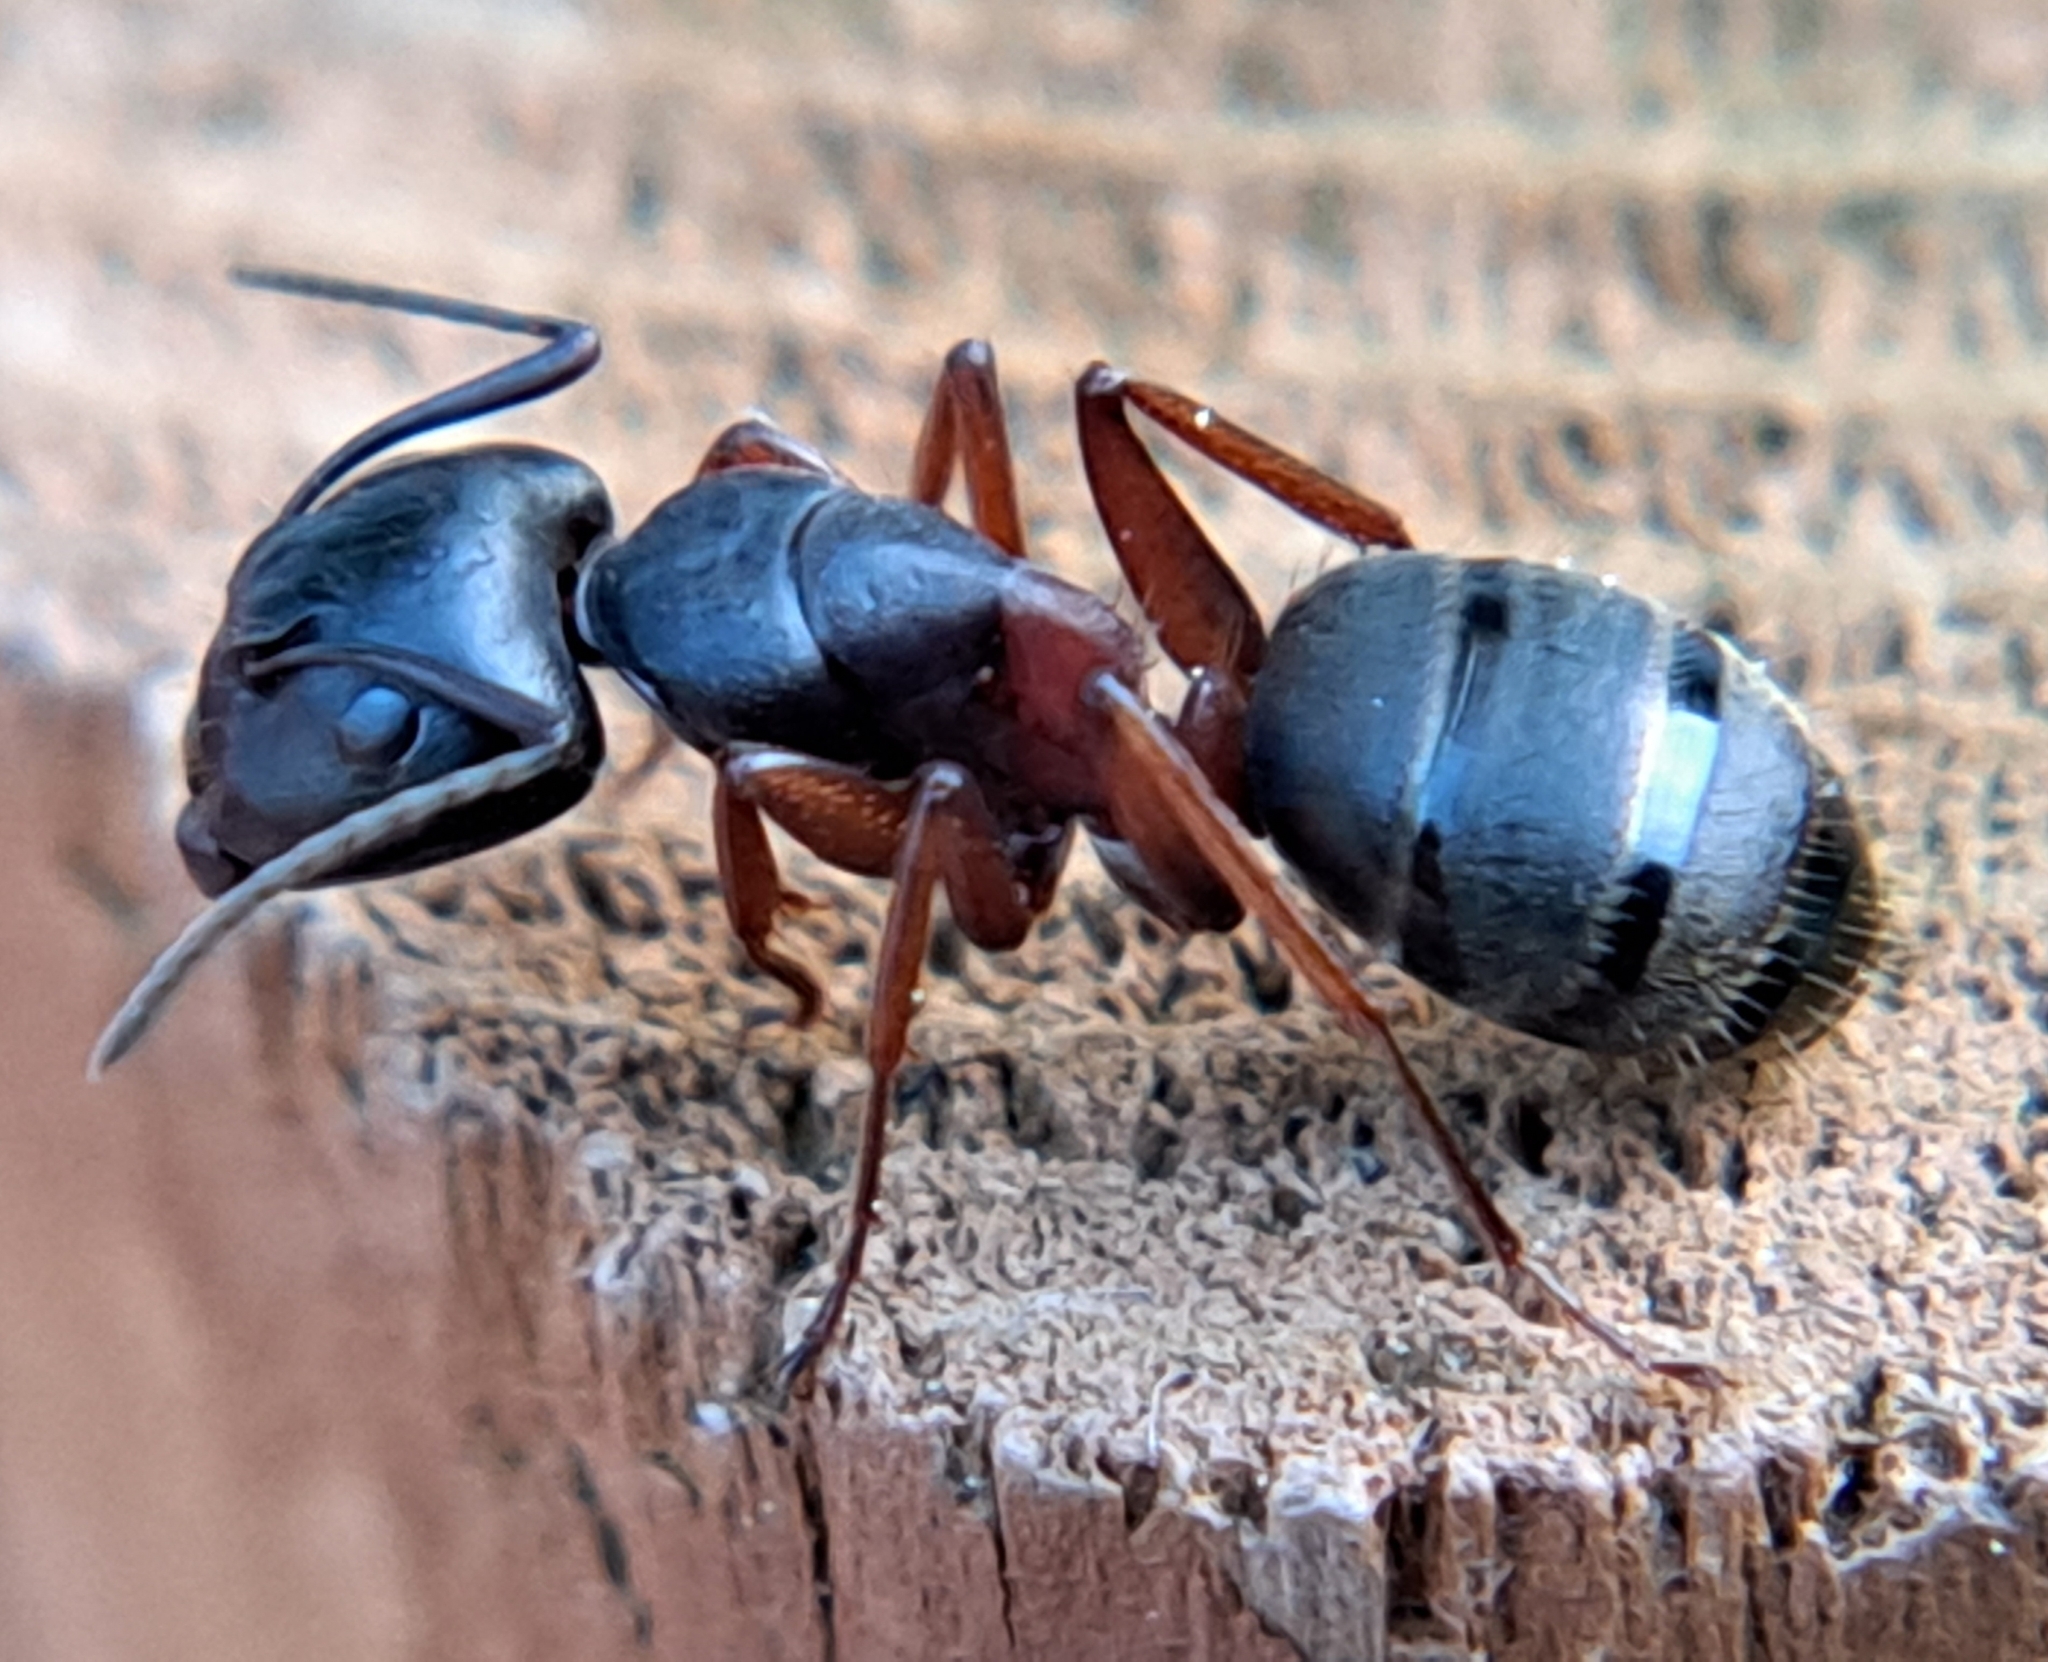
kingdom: Animalia
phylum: Arthropoda
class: Insecta
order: Hymenoptera
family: Formicidae
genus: Camponotus
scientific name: Camponotus herculeanus
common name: Hercules ant
